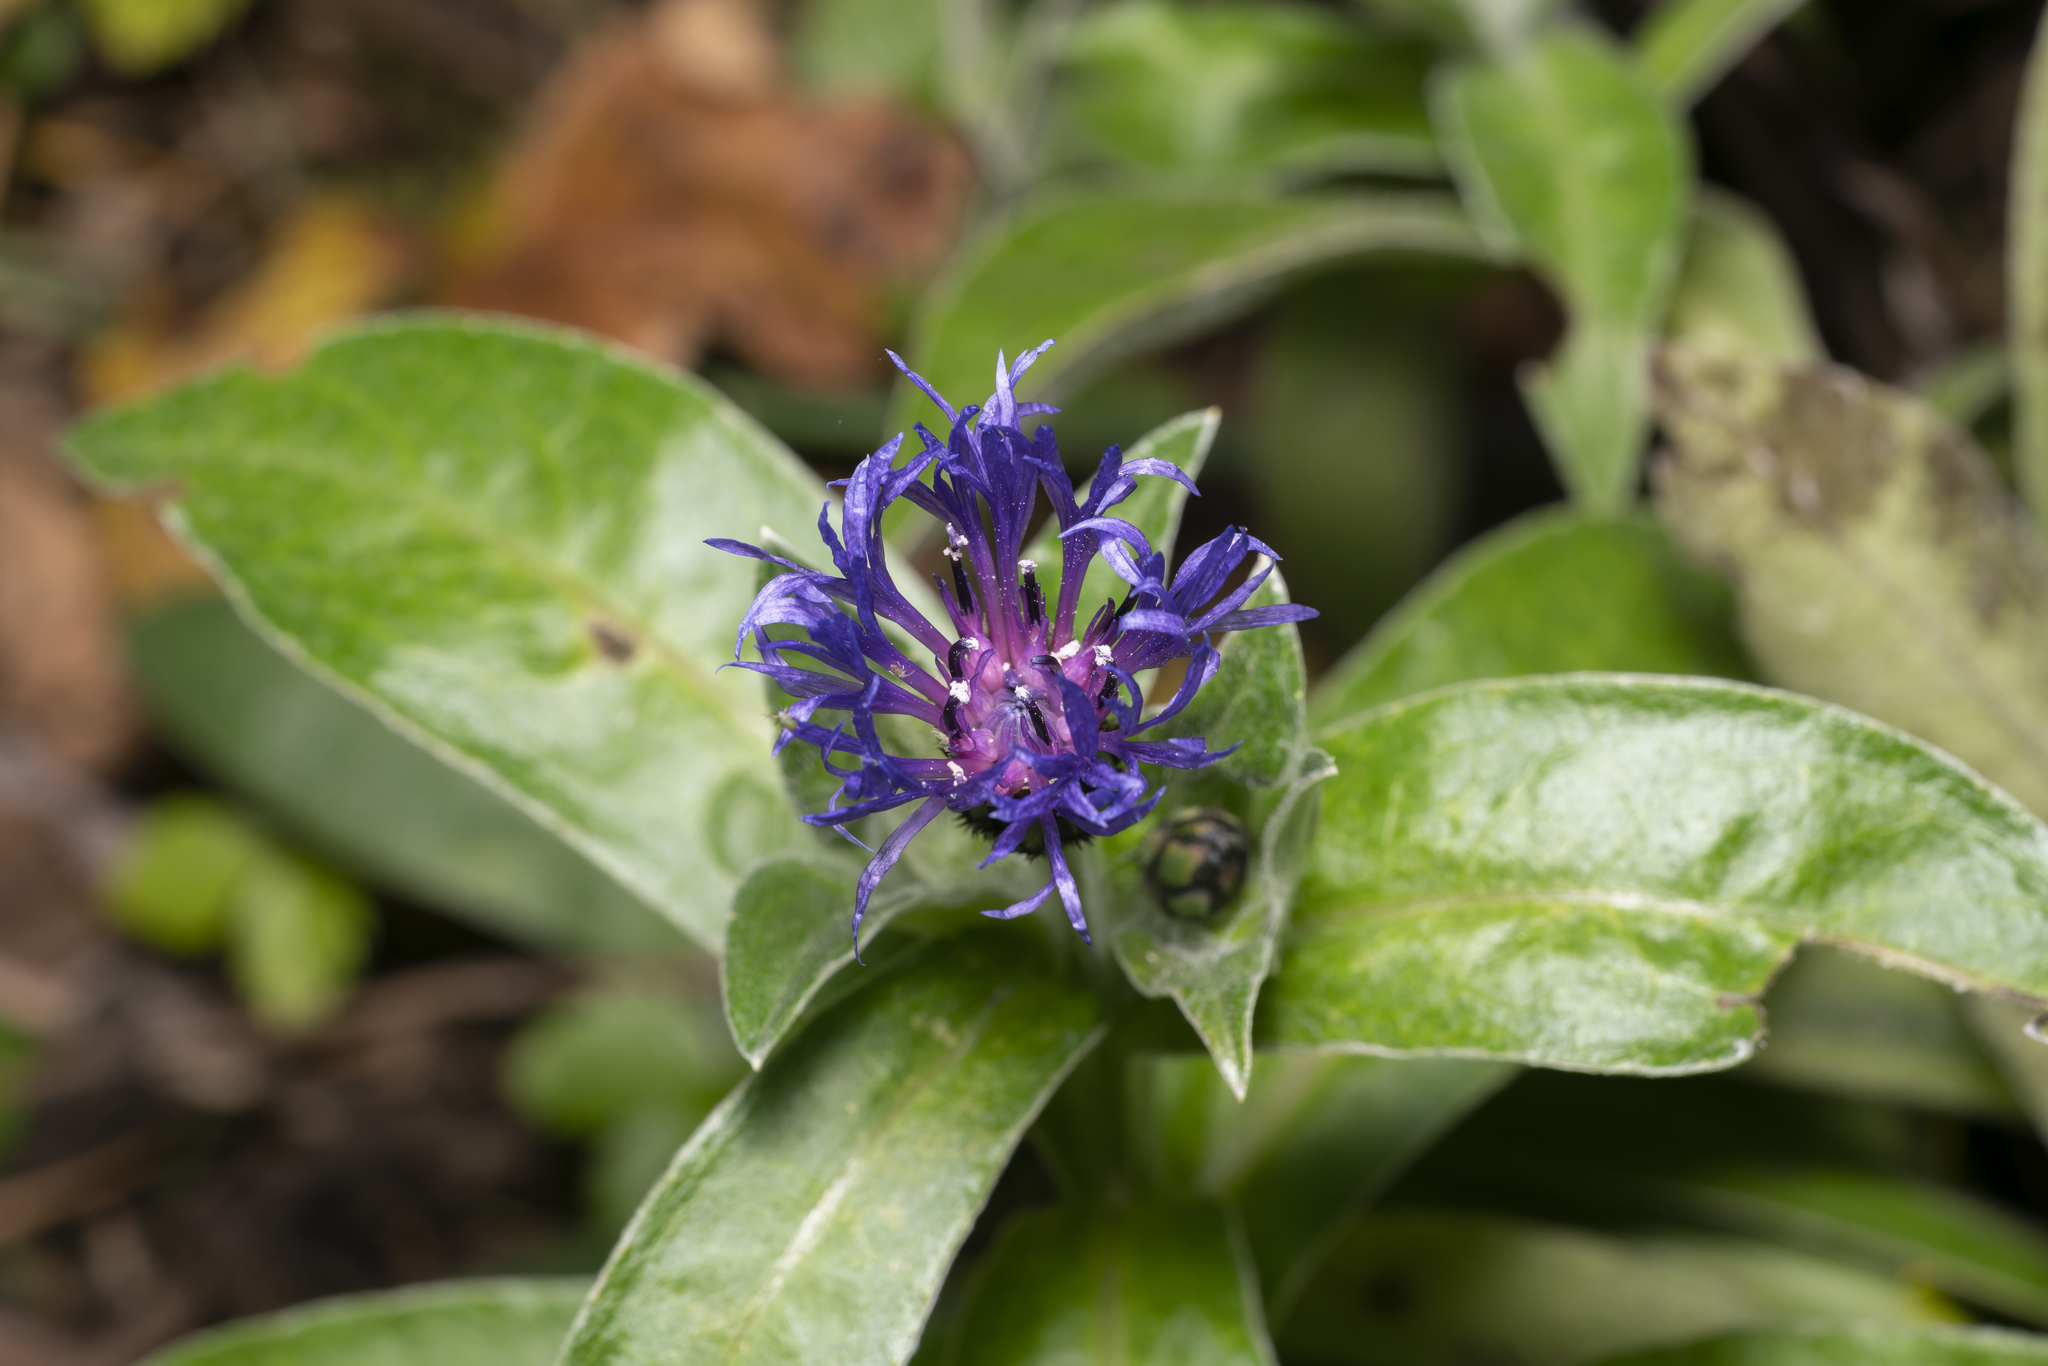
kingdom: Plantae
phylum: Tracheophyta
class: Magnoliopsida
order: Asterales
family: Asteraceae
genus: Centaurea
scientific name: Centaurea montana
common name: Perennial cornflower
